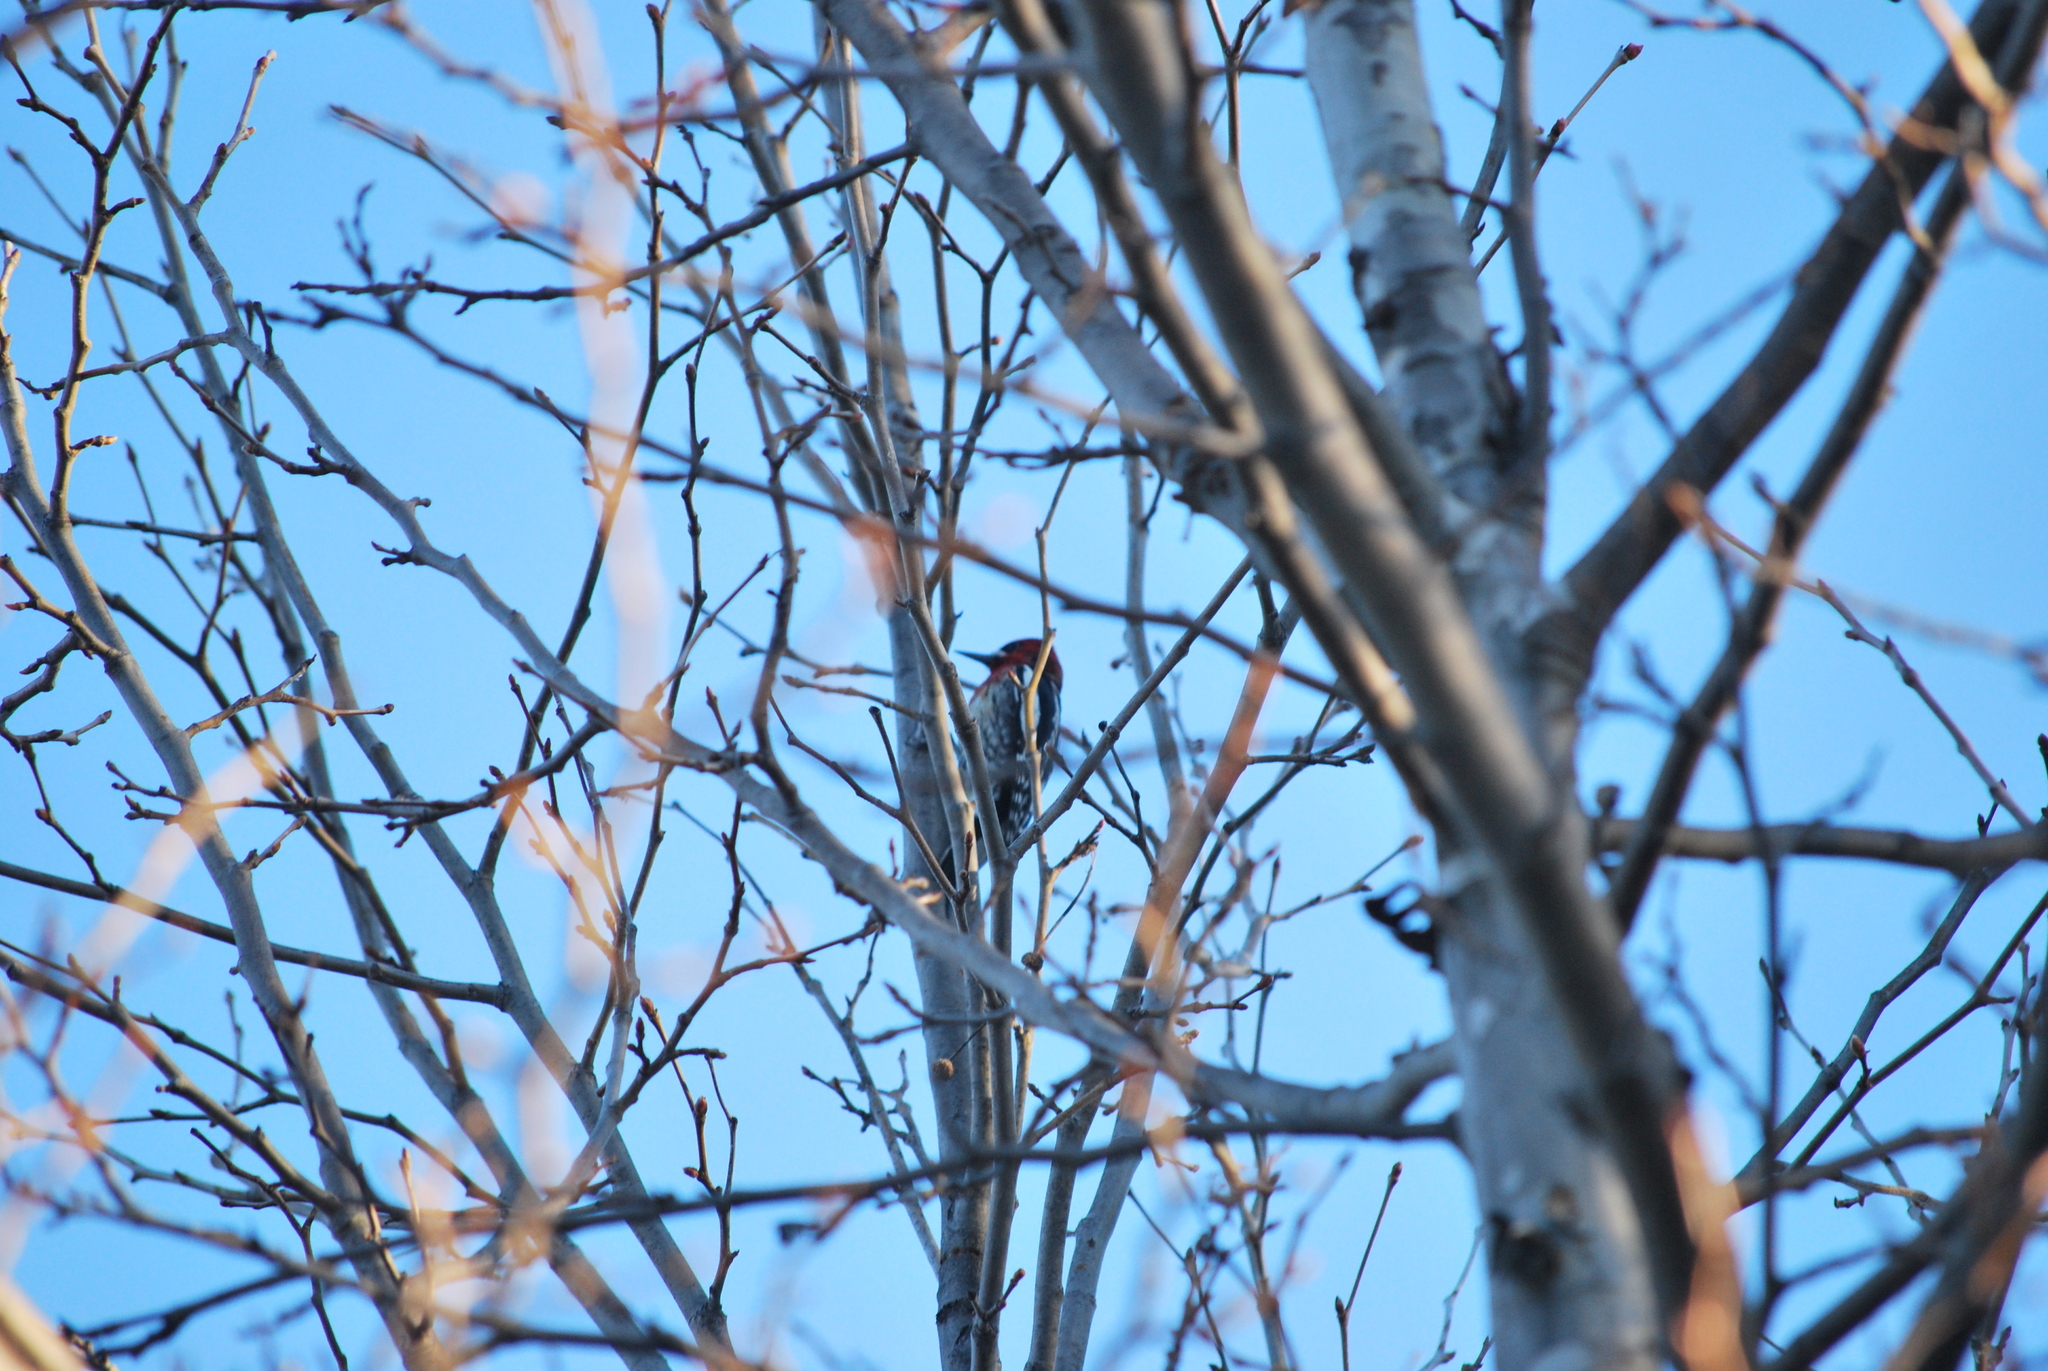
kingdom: Animalia
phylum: Chordata
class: Aves
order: Piciformes
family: Picidae
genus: Sphyrapicus
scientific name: Sphyrapicus ruber
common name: Red-breasted sapsucker
